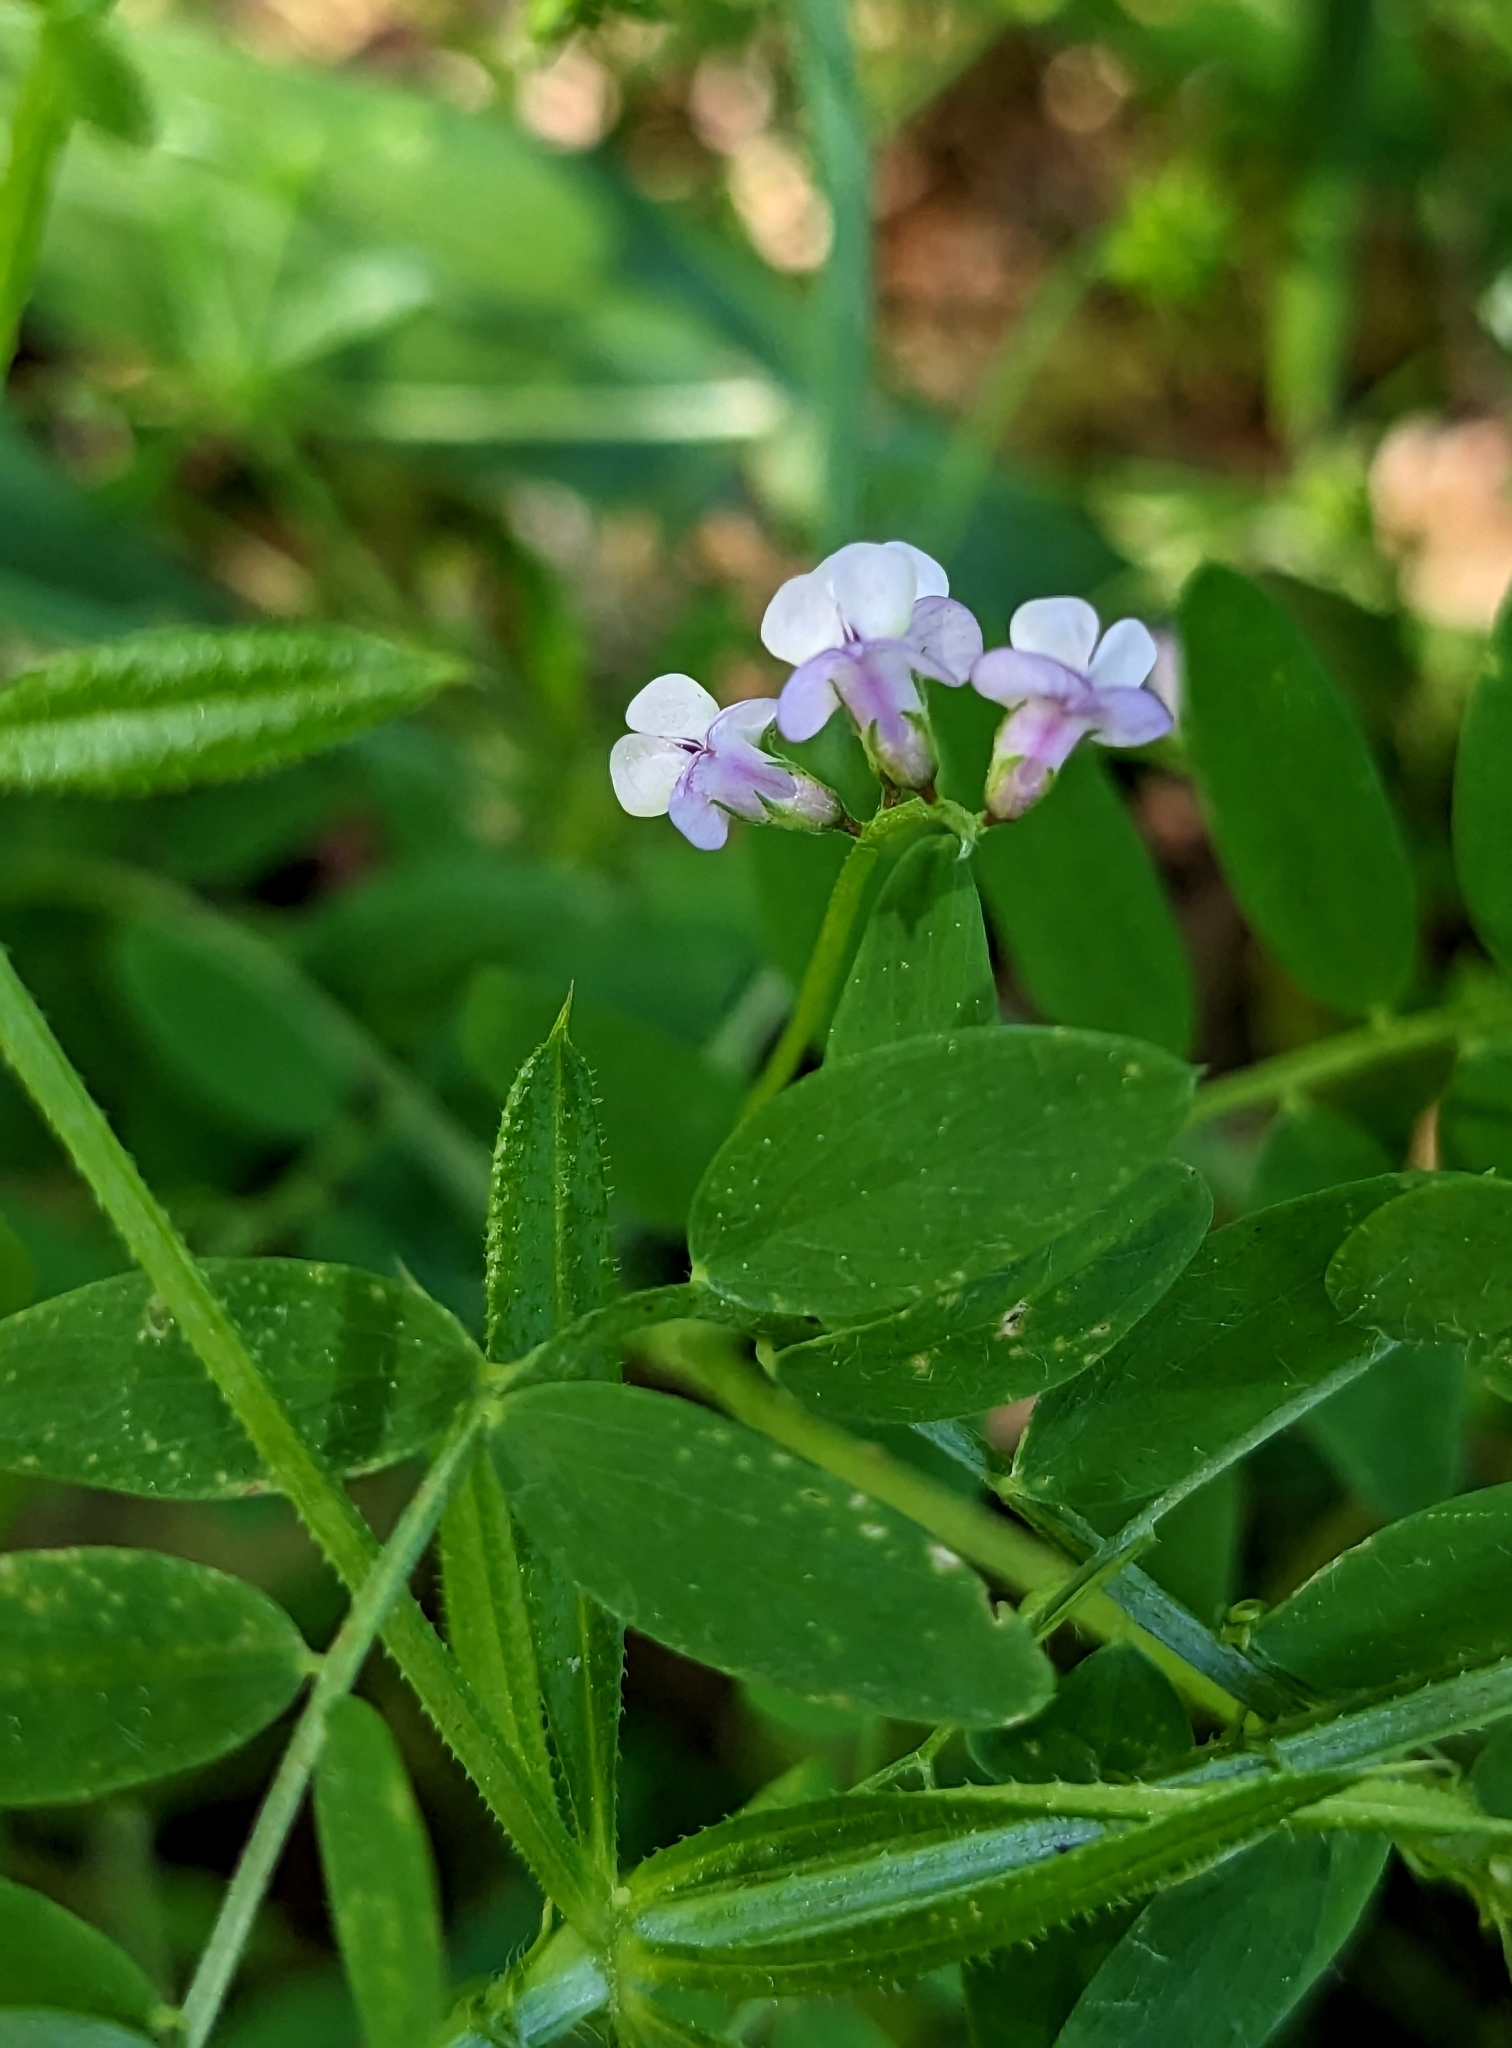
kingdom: Plantae
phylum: Tracheophyta
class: Magnoliopsida
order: Fabales
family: Fabaceae
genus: Vicia
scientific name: Vicia disperma
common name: European vetch
